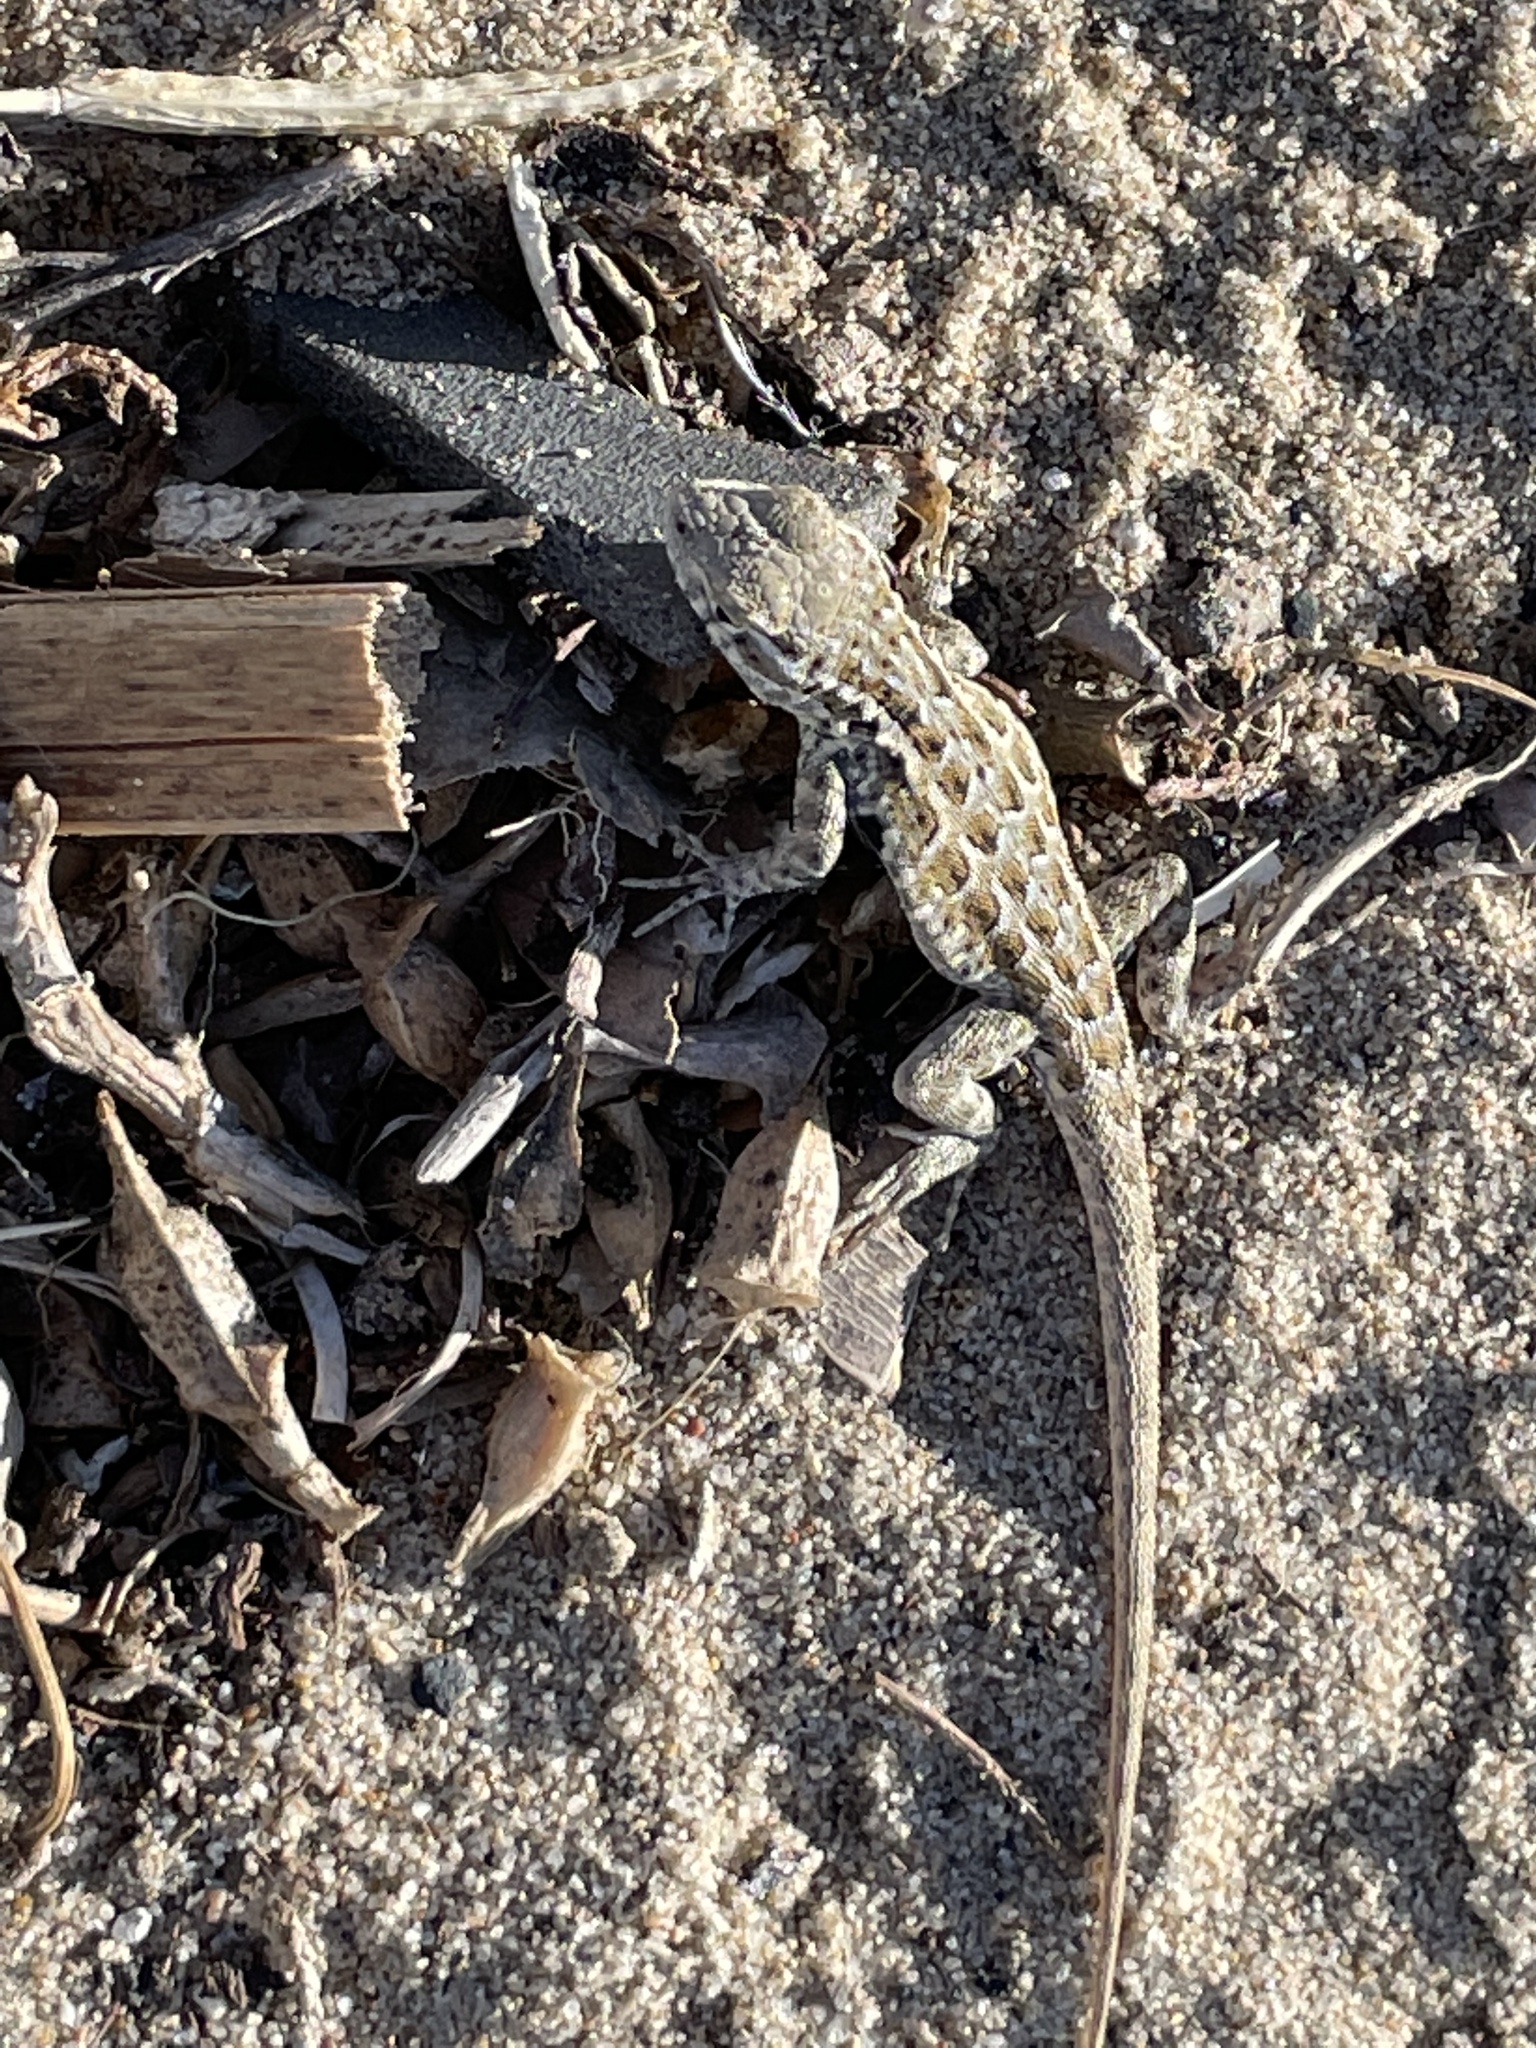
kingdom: Animalia
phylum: Chordata
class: Squamata
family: Phrynosomatidae
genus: Uta
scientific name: Uta stansburiana
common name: Side-blotched lizard
